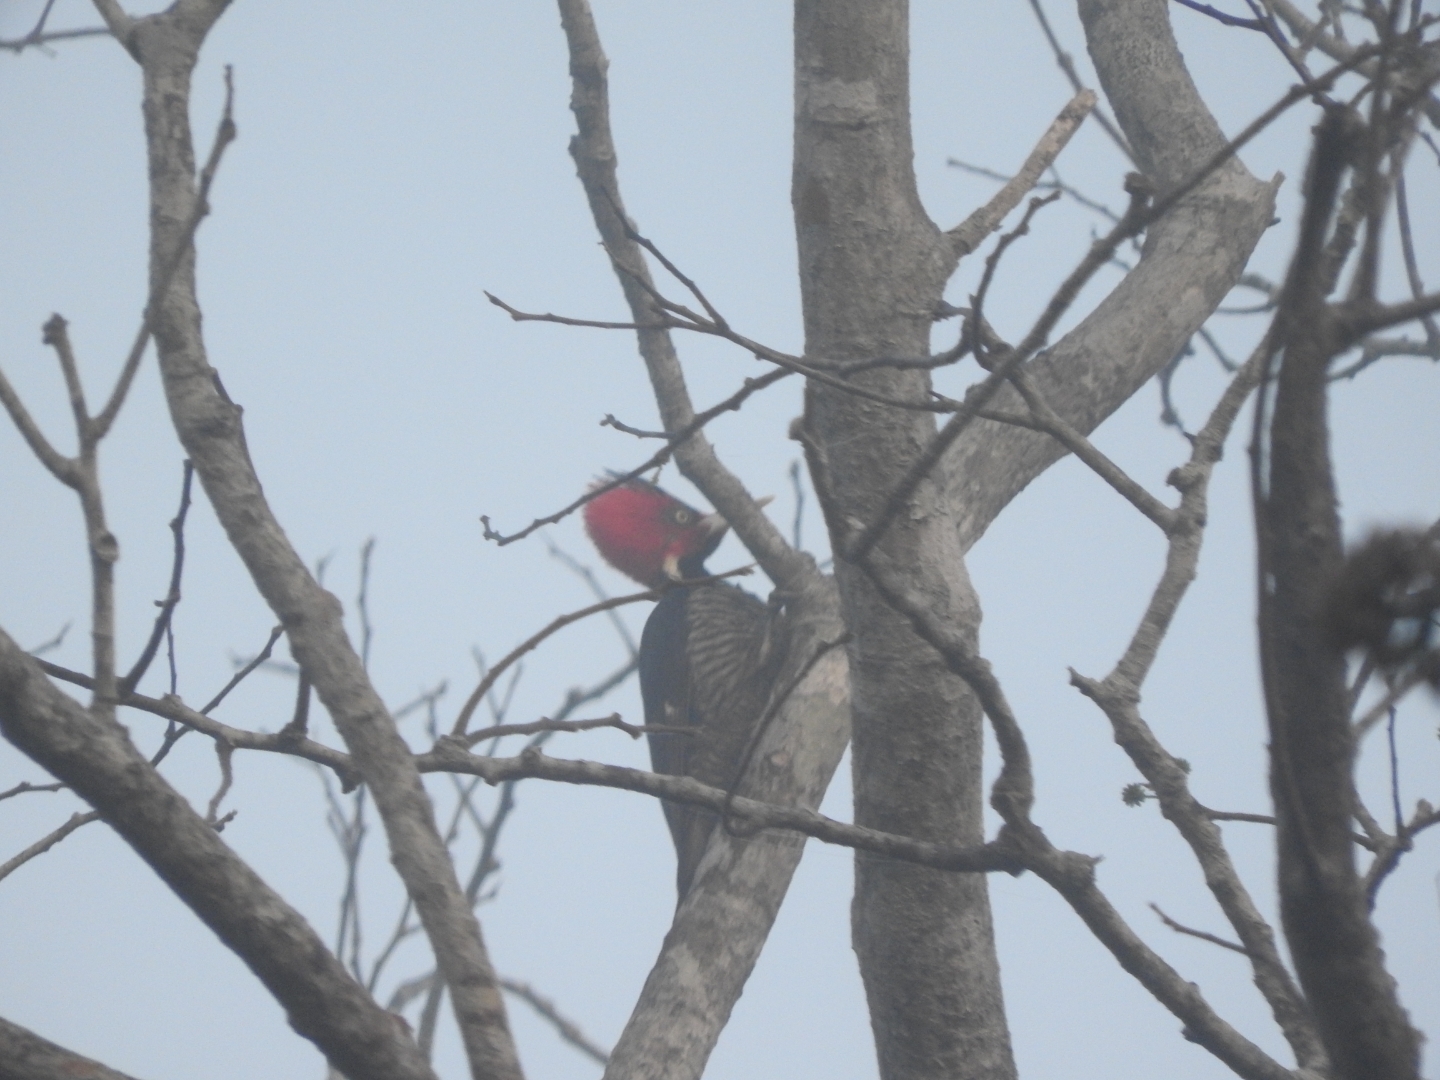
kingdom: Animalia
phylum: Chordata
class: Aves
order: Piciformes
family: Picidae
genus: Campephilus
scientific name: Campephilus guatemalensis
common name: Pale-billed woodpecker
